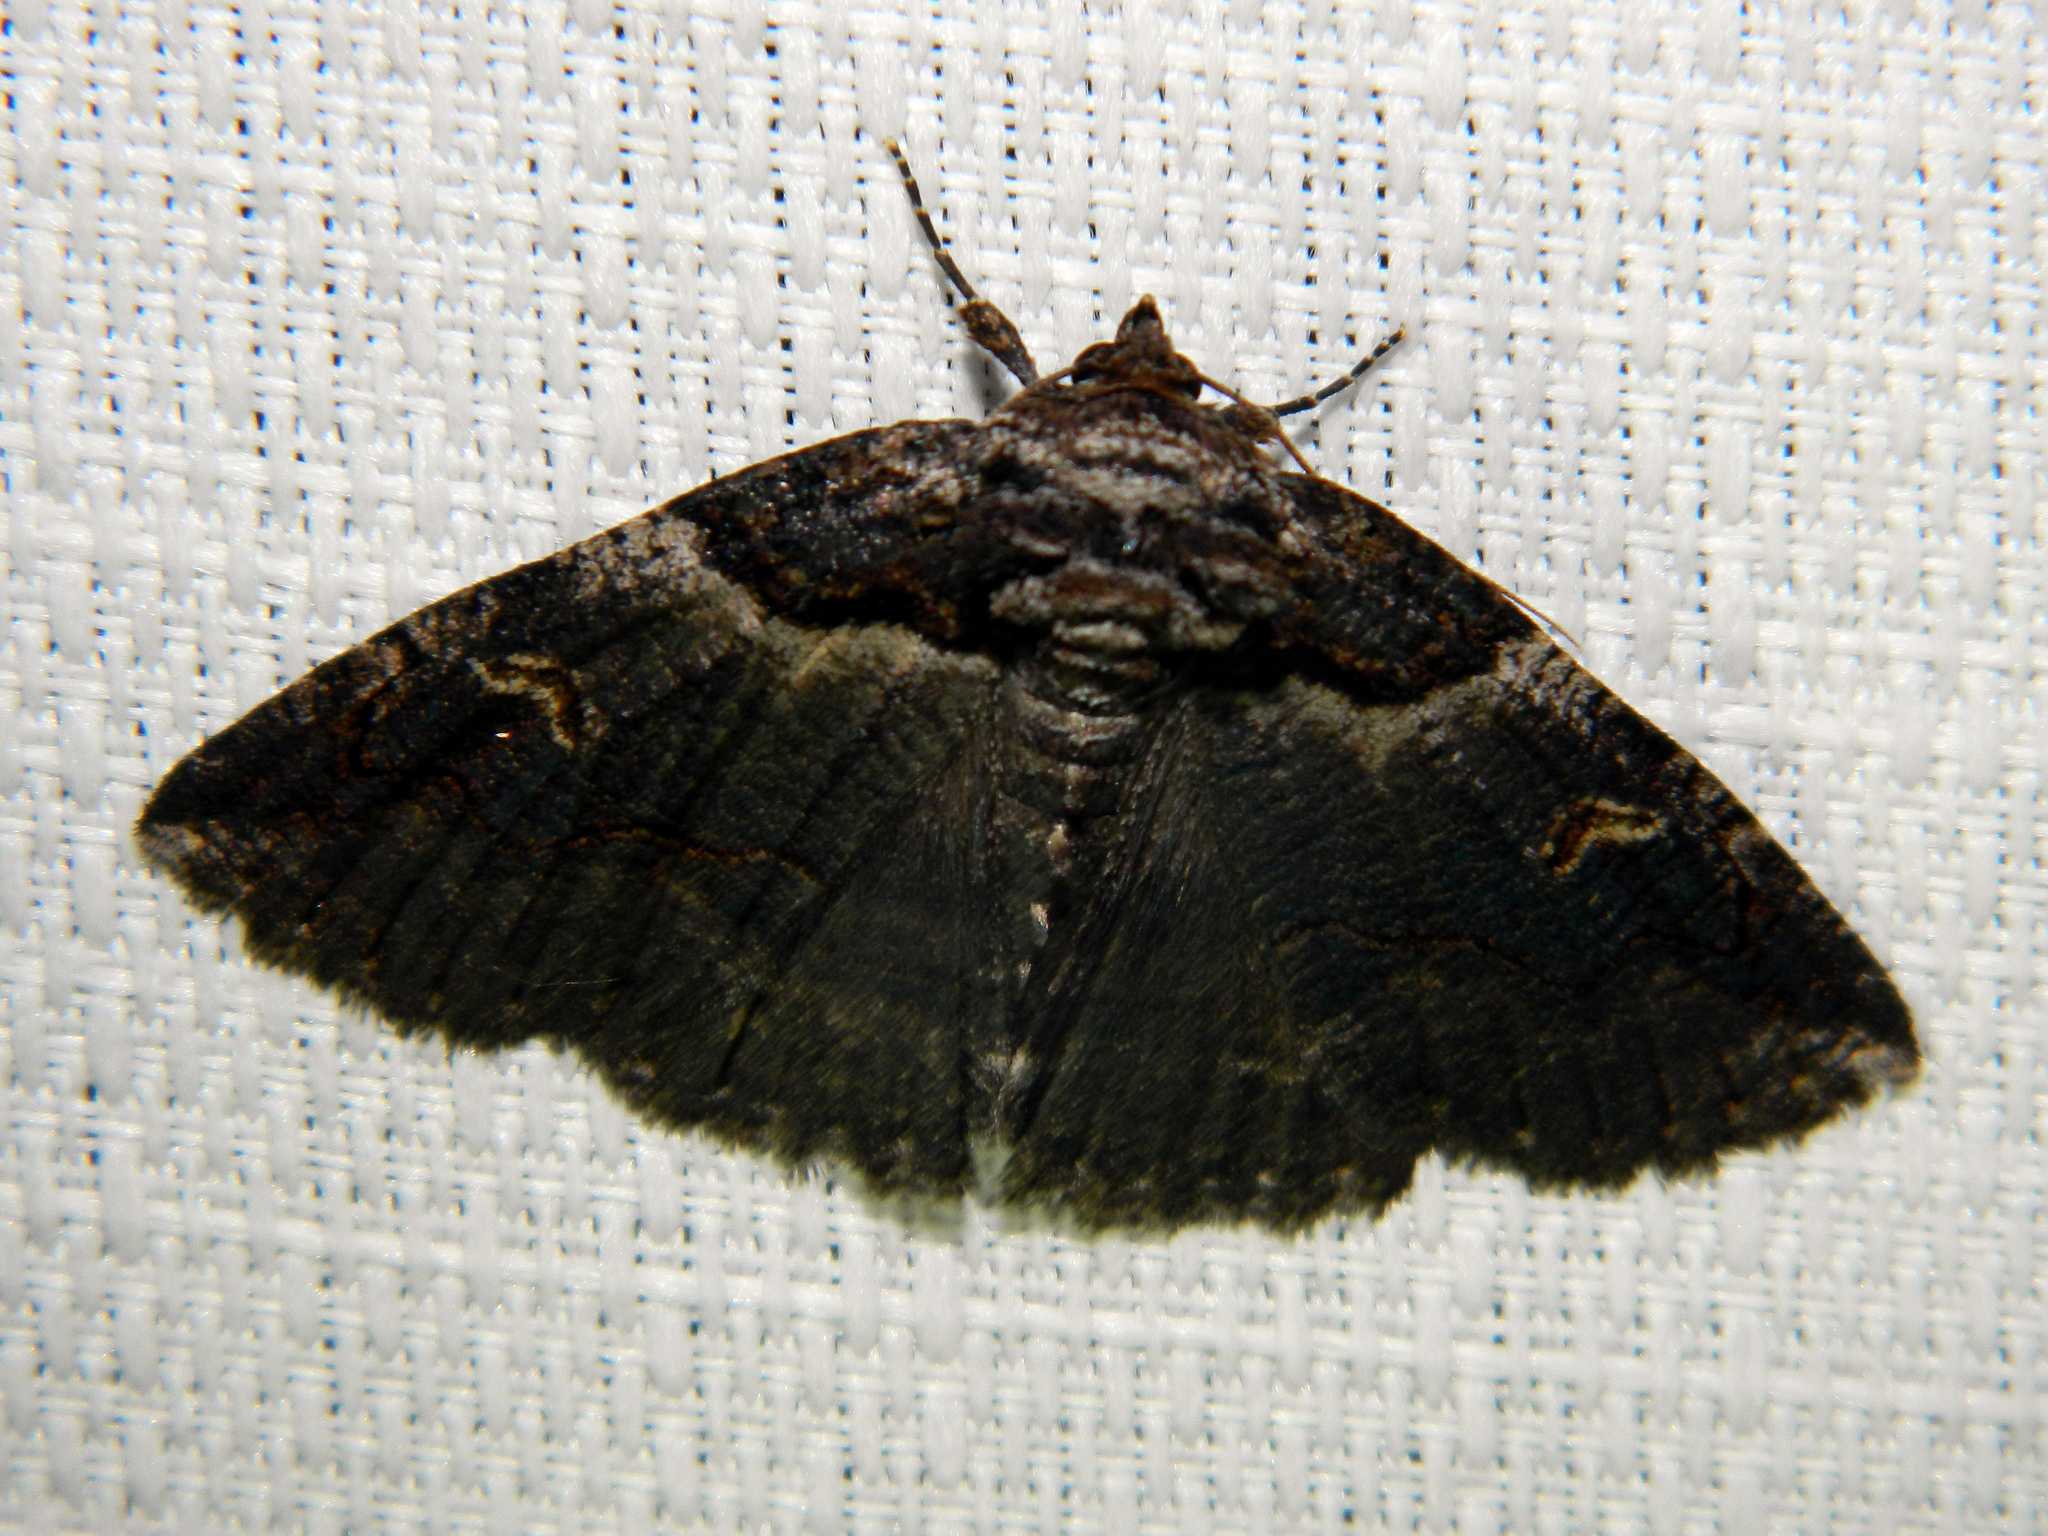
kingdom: Animalia
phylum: Arthropoda
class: Insecta
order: Lepidoptera
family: Erebidae
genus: Zale
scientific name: Zale intenta
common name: Intent zale moth
